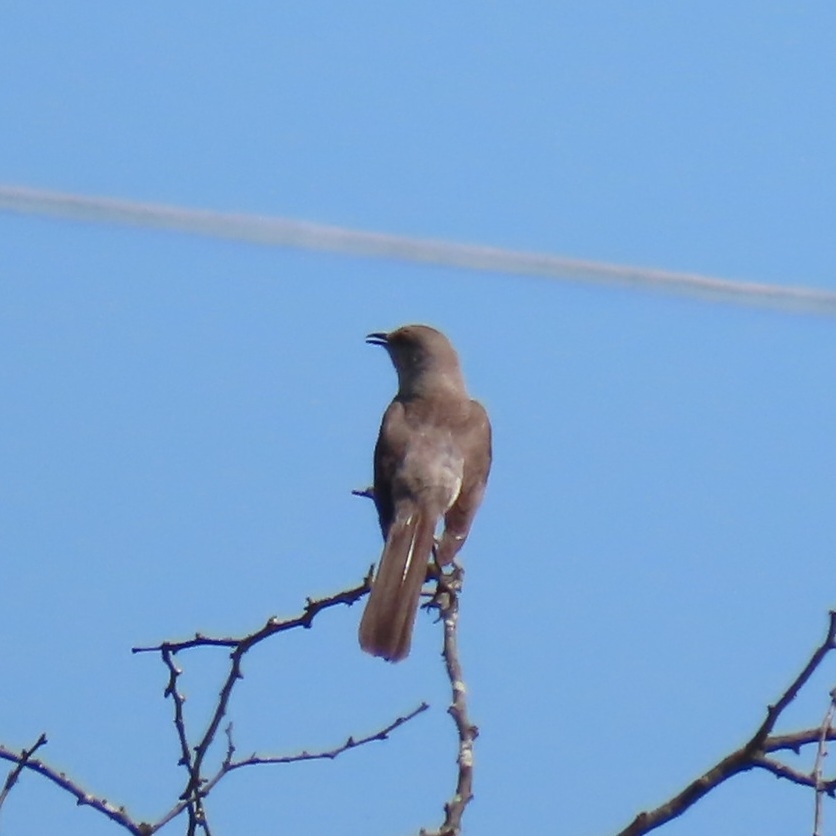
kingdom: Animalia
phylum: Chordata
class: Aves
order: Passeriformes
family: Mimidae
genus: Mimus
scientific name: Mimus polyglottos
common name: Northern mockingbird
